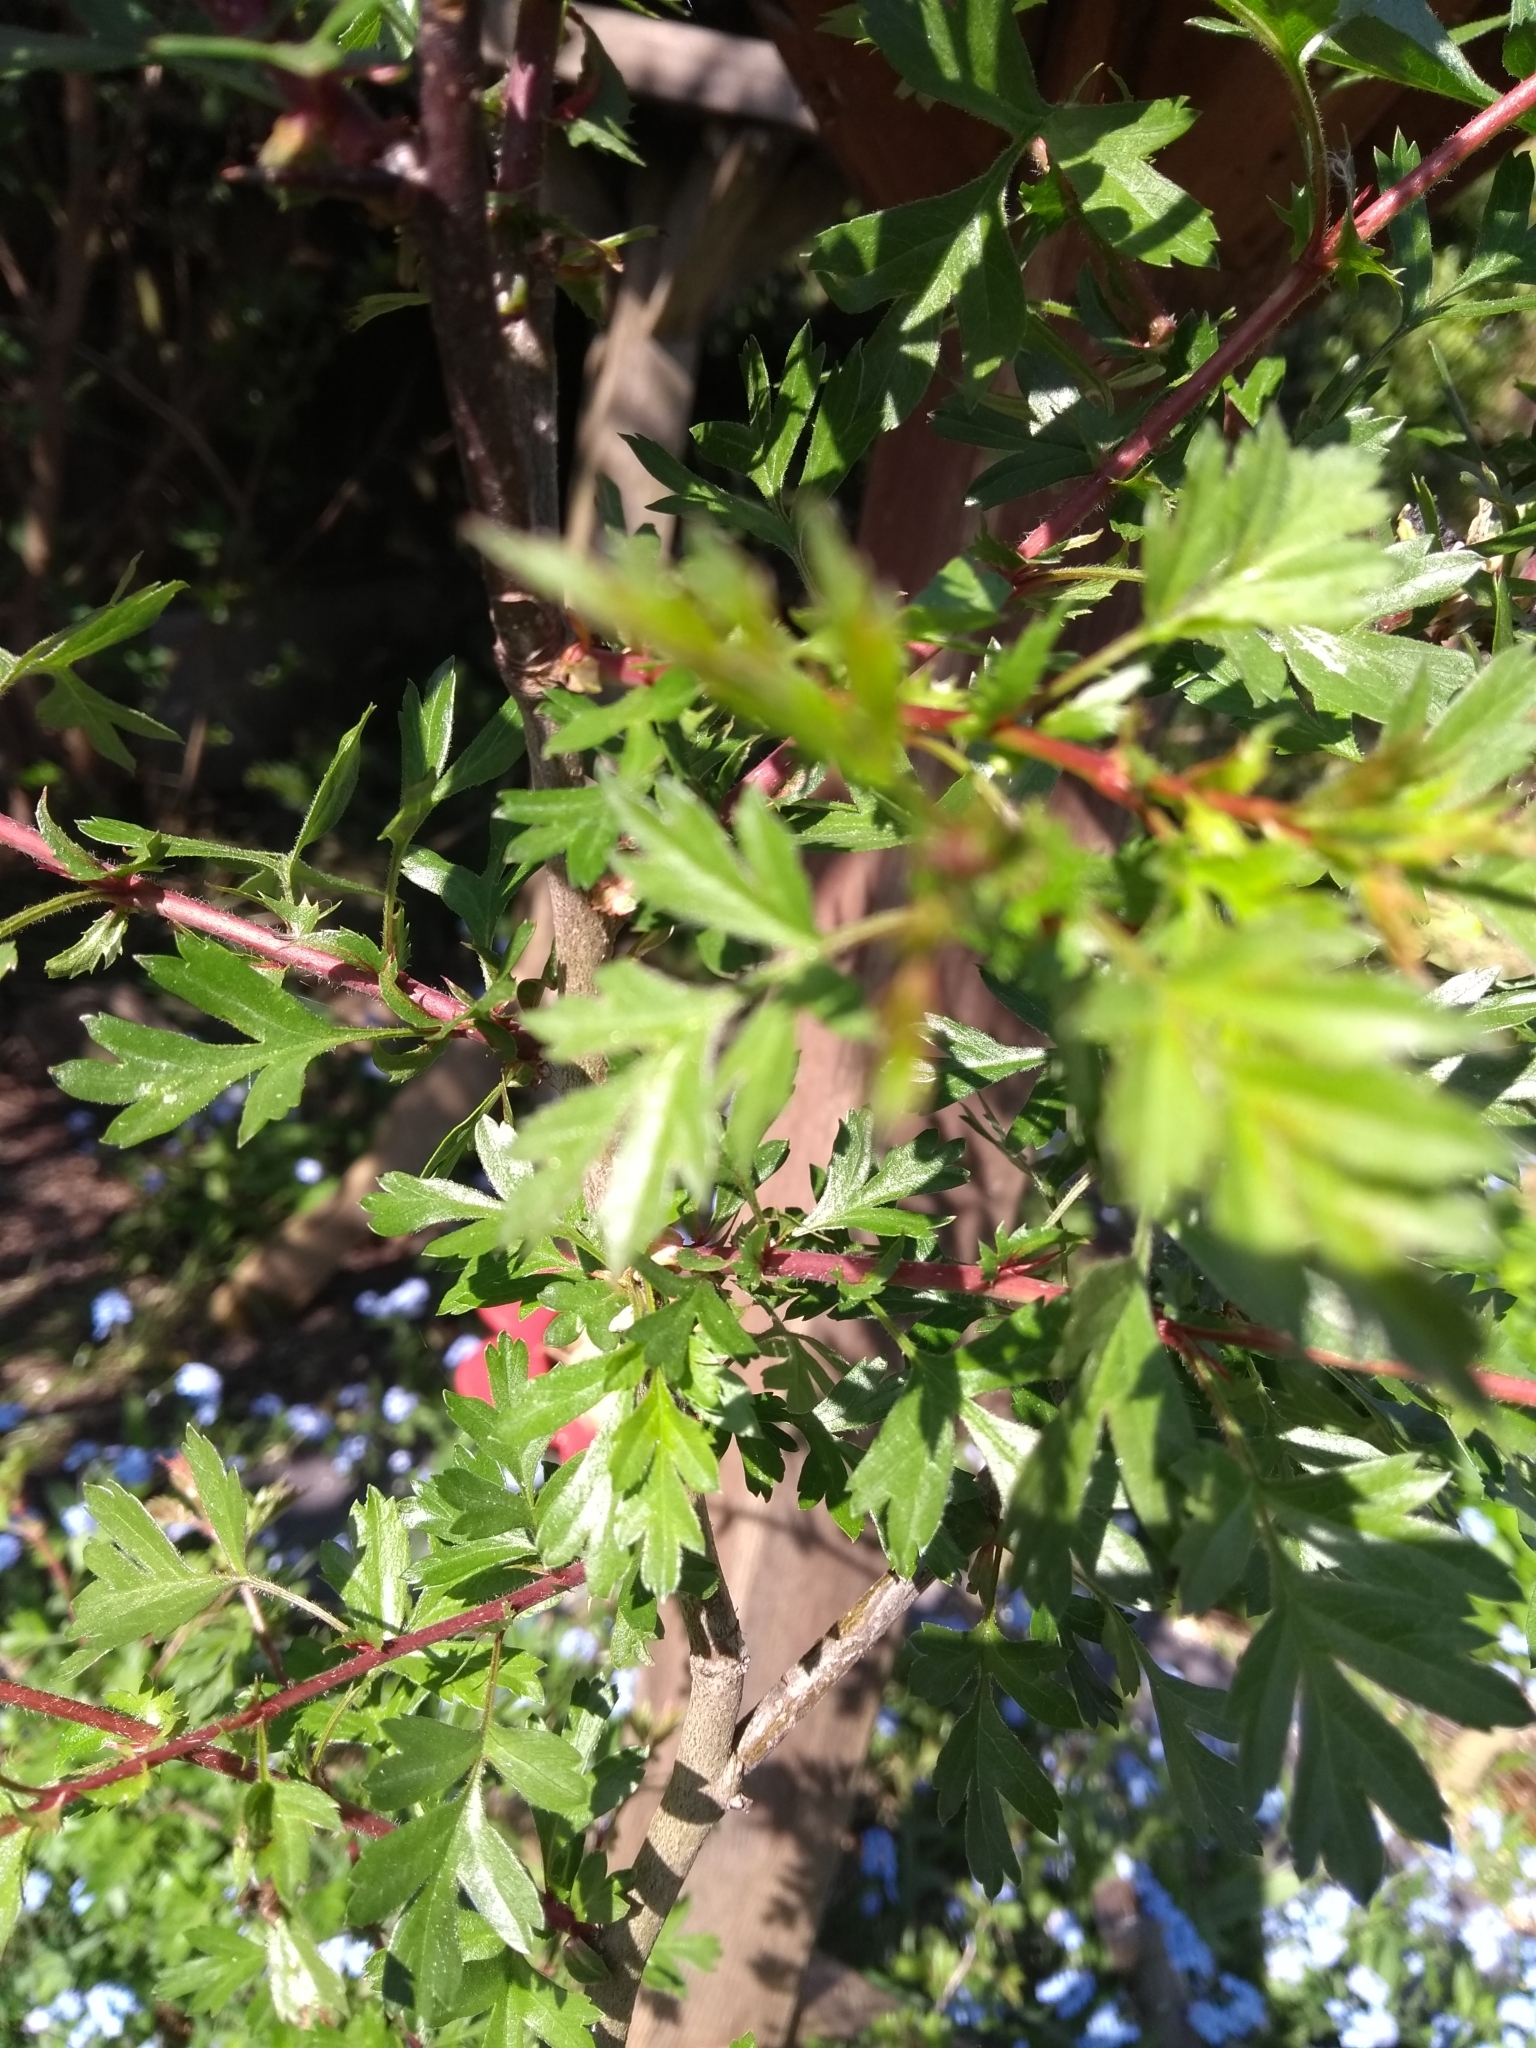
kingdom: Plantae
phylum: Tracheophyta
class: Magnoliopsida
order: Rosales
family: Rosaceae
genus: Crataegus
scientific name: Crataegus monogyna
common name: Hawthorn
